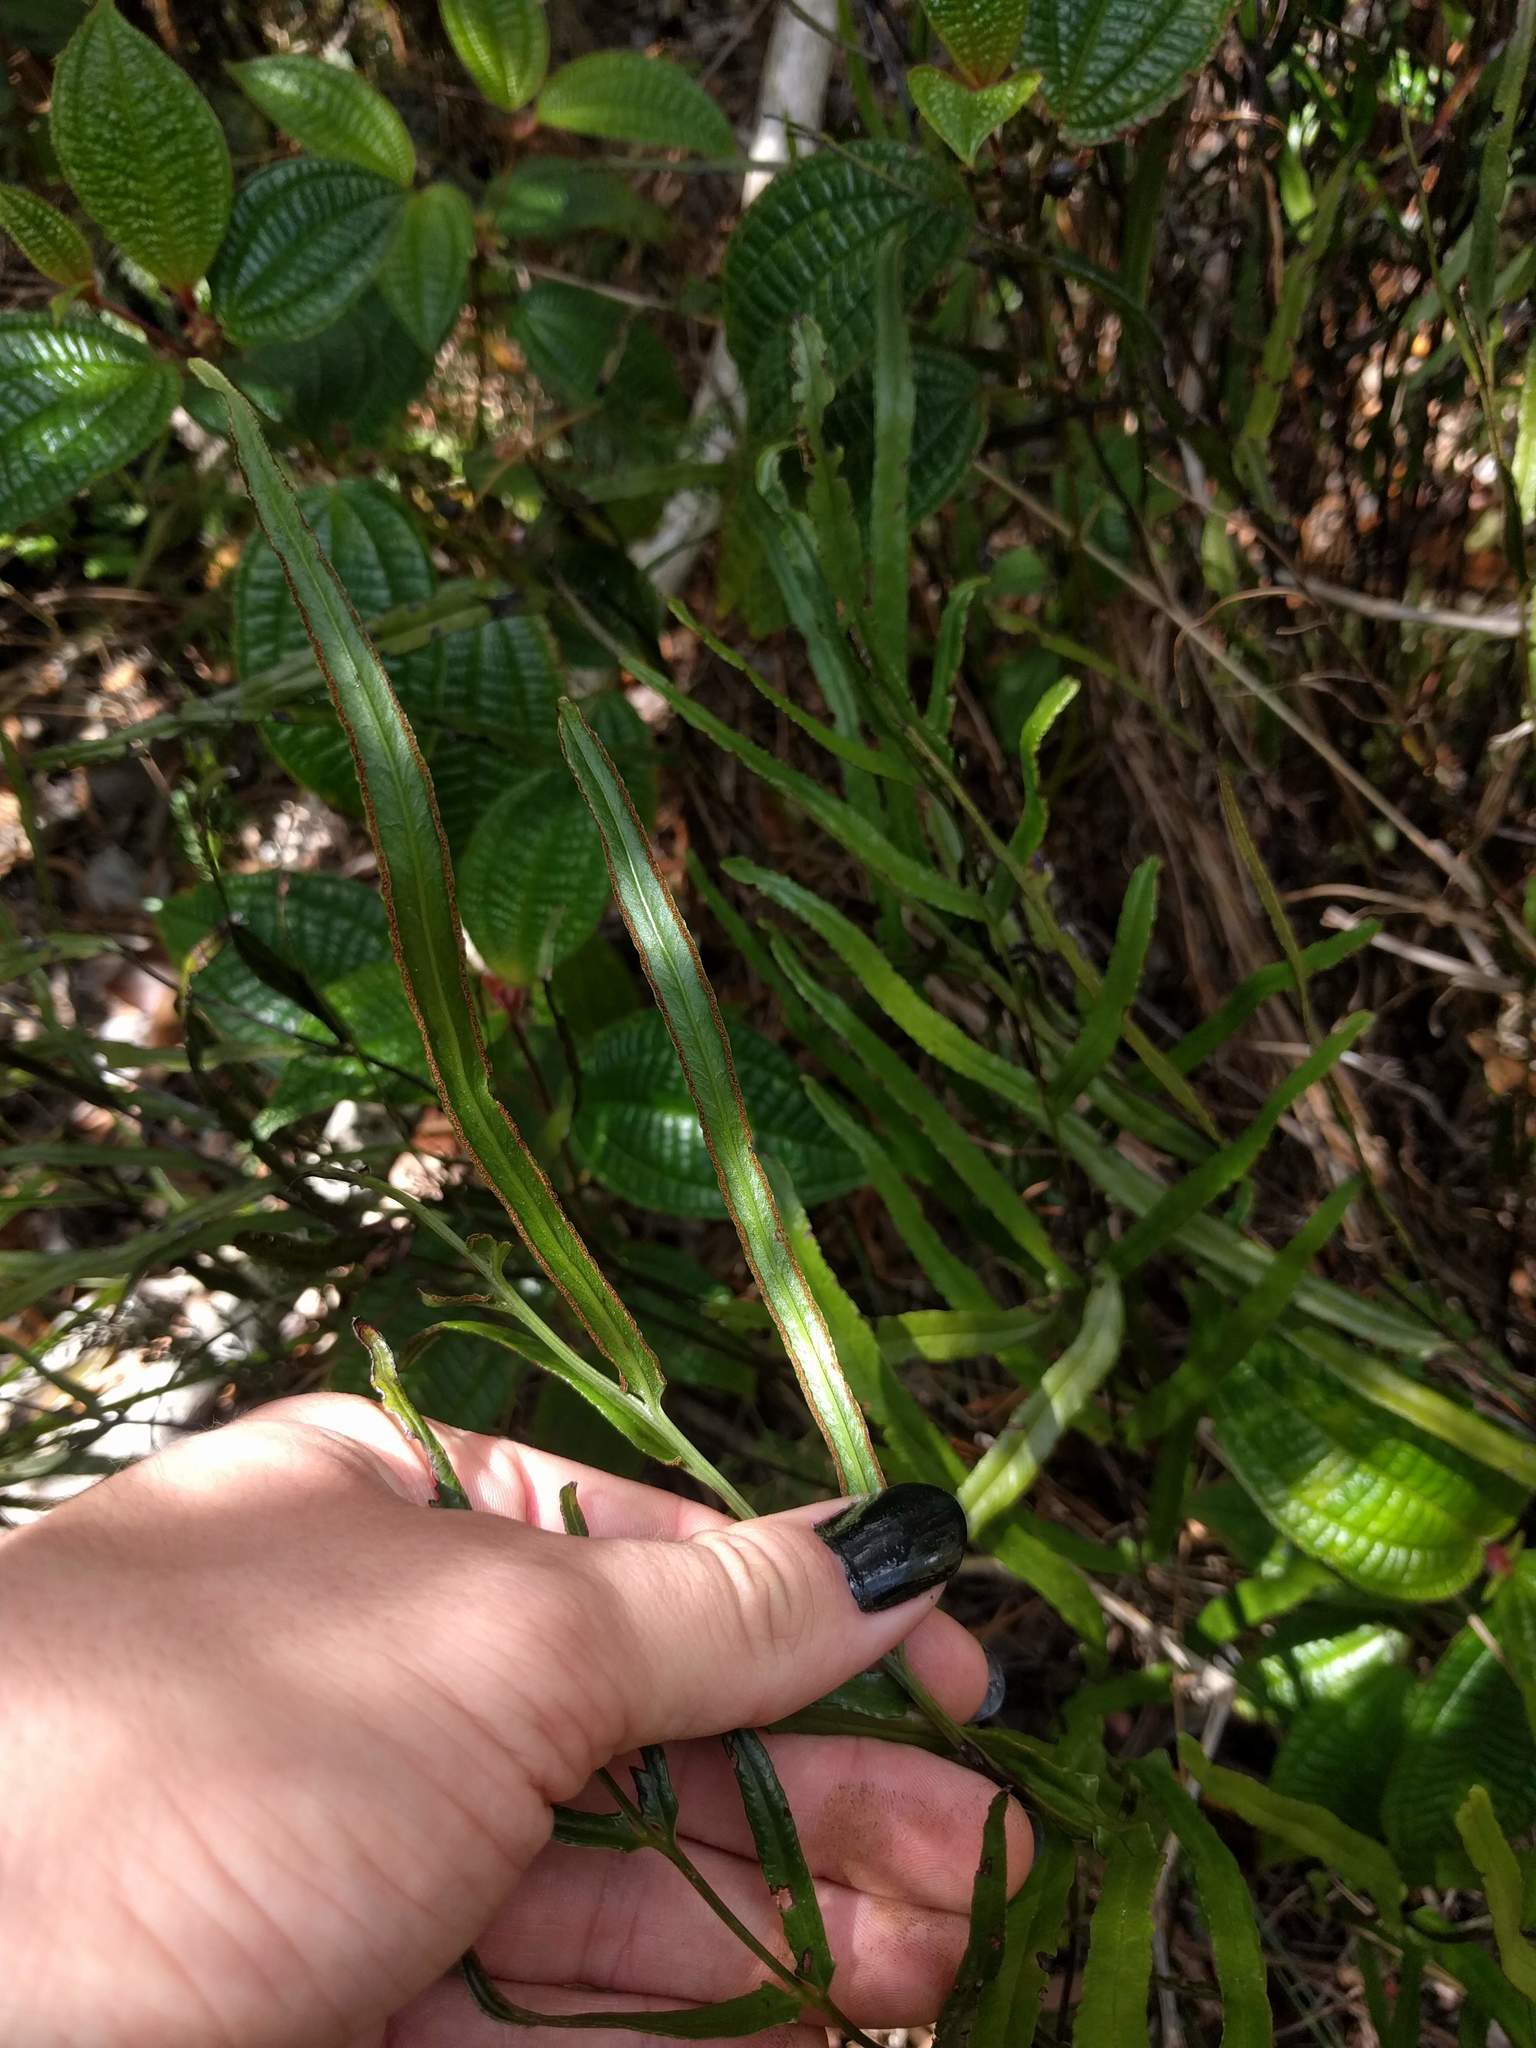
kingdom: Plantae
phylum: Tracheophyta
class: Polypodiopsida
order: Polypodiales
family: Lindsaeaceae
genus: Lindsaea
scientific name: Lindsaea ensifolia
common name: Graceful necklace fern
